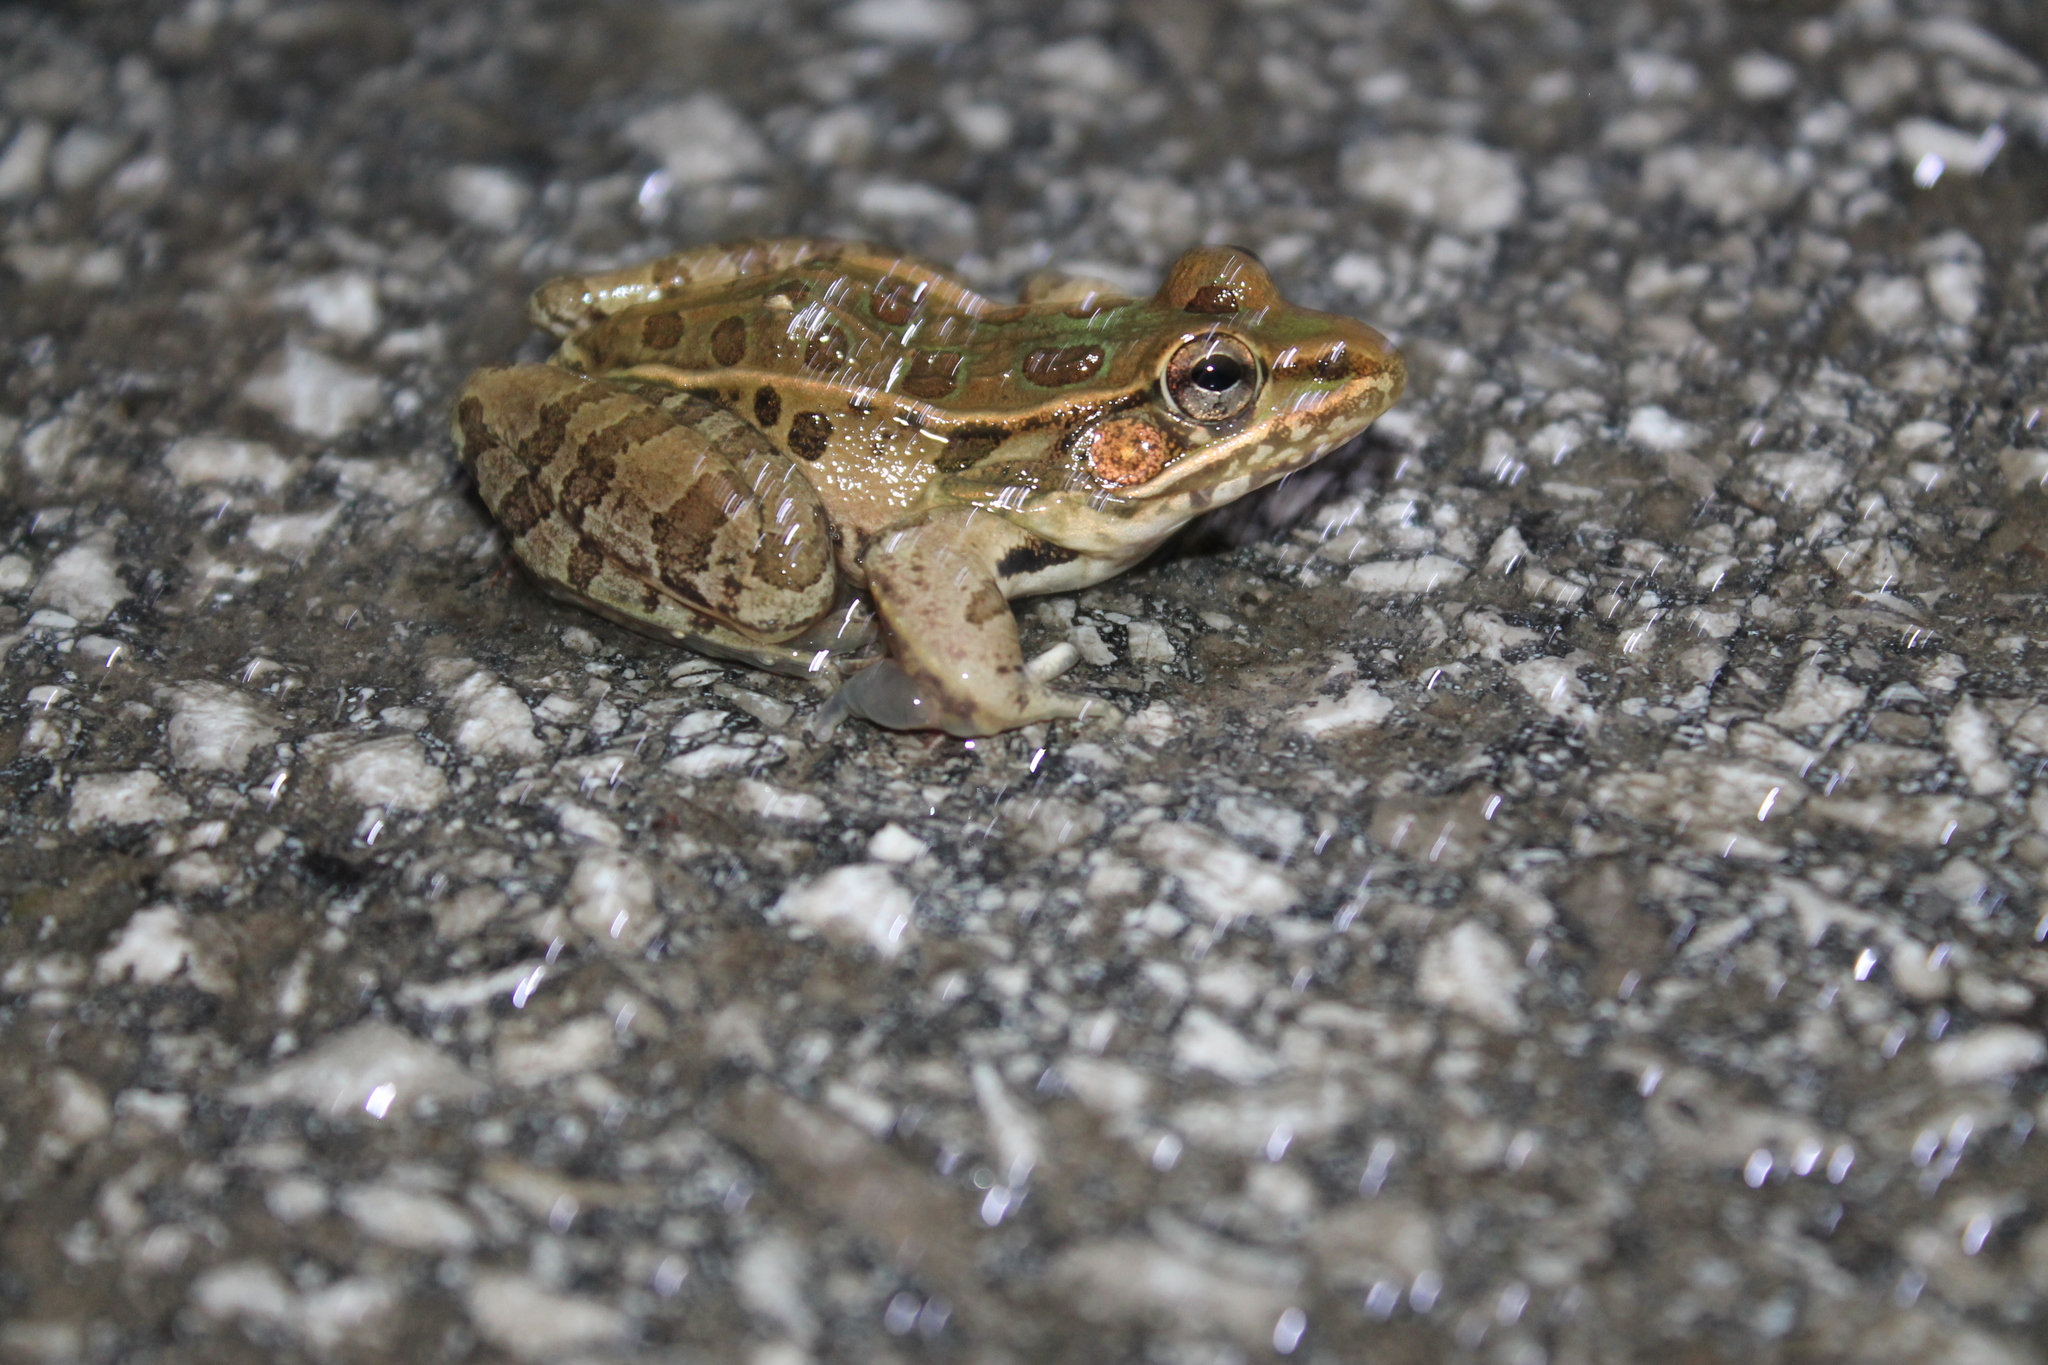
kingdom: Animalia
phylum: Chordata
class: Amphibia
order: Anura
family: Ranidae
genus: Lithobates
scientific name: Lithobates sphenocephalus
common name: Southern leopard frog
